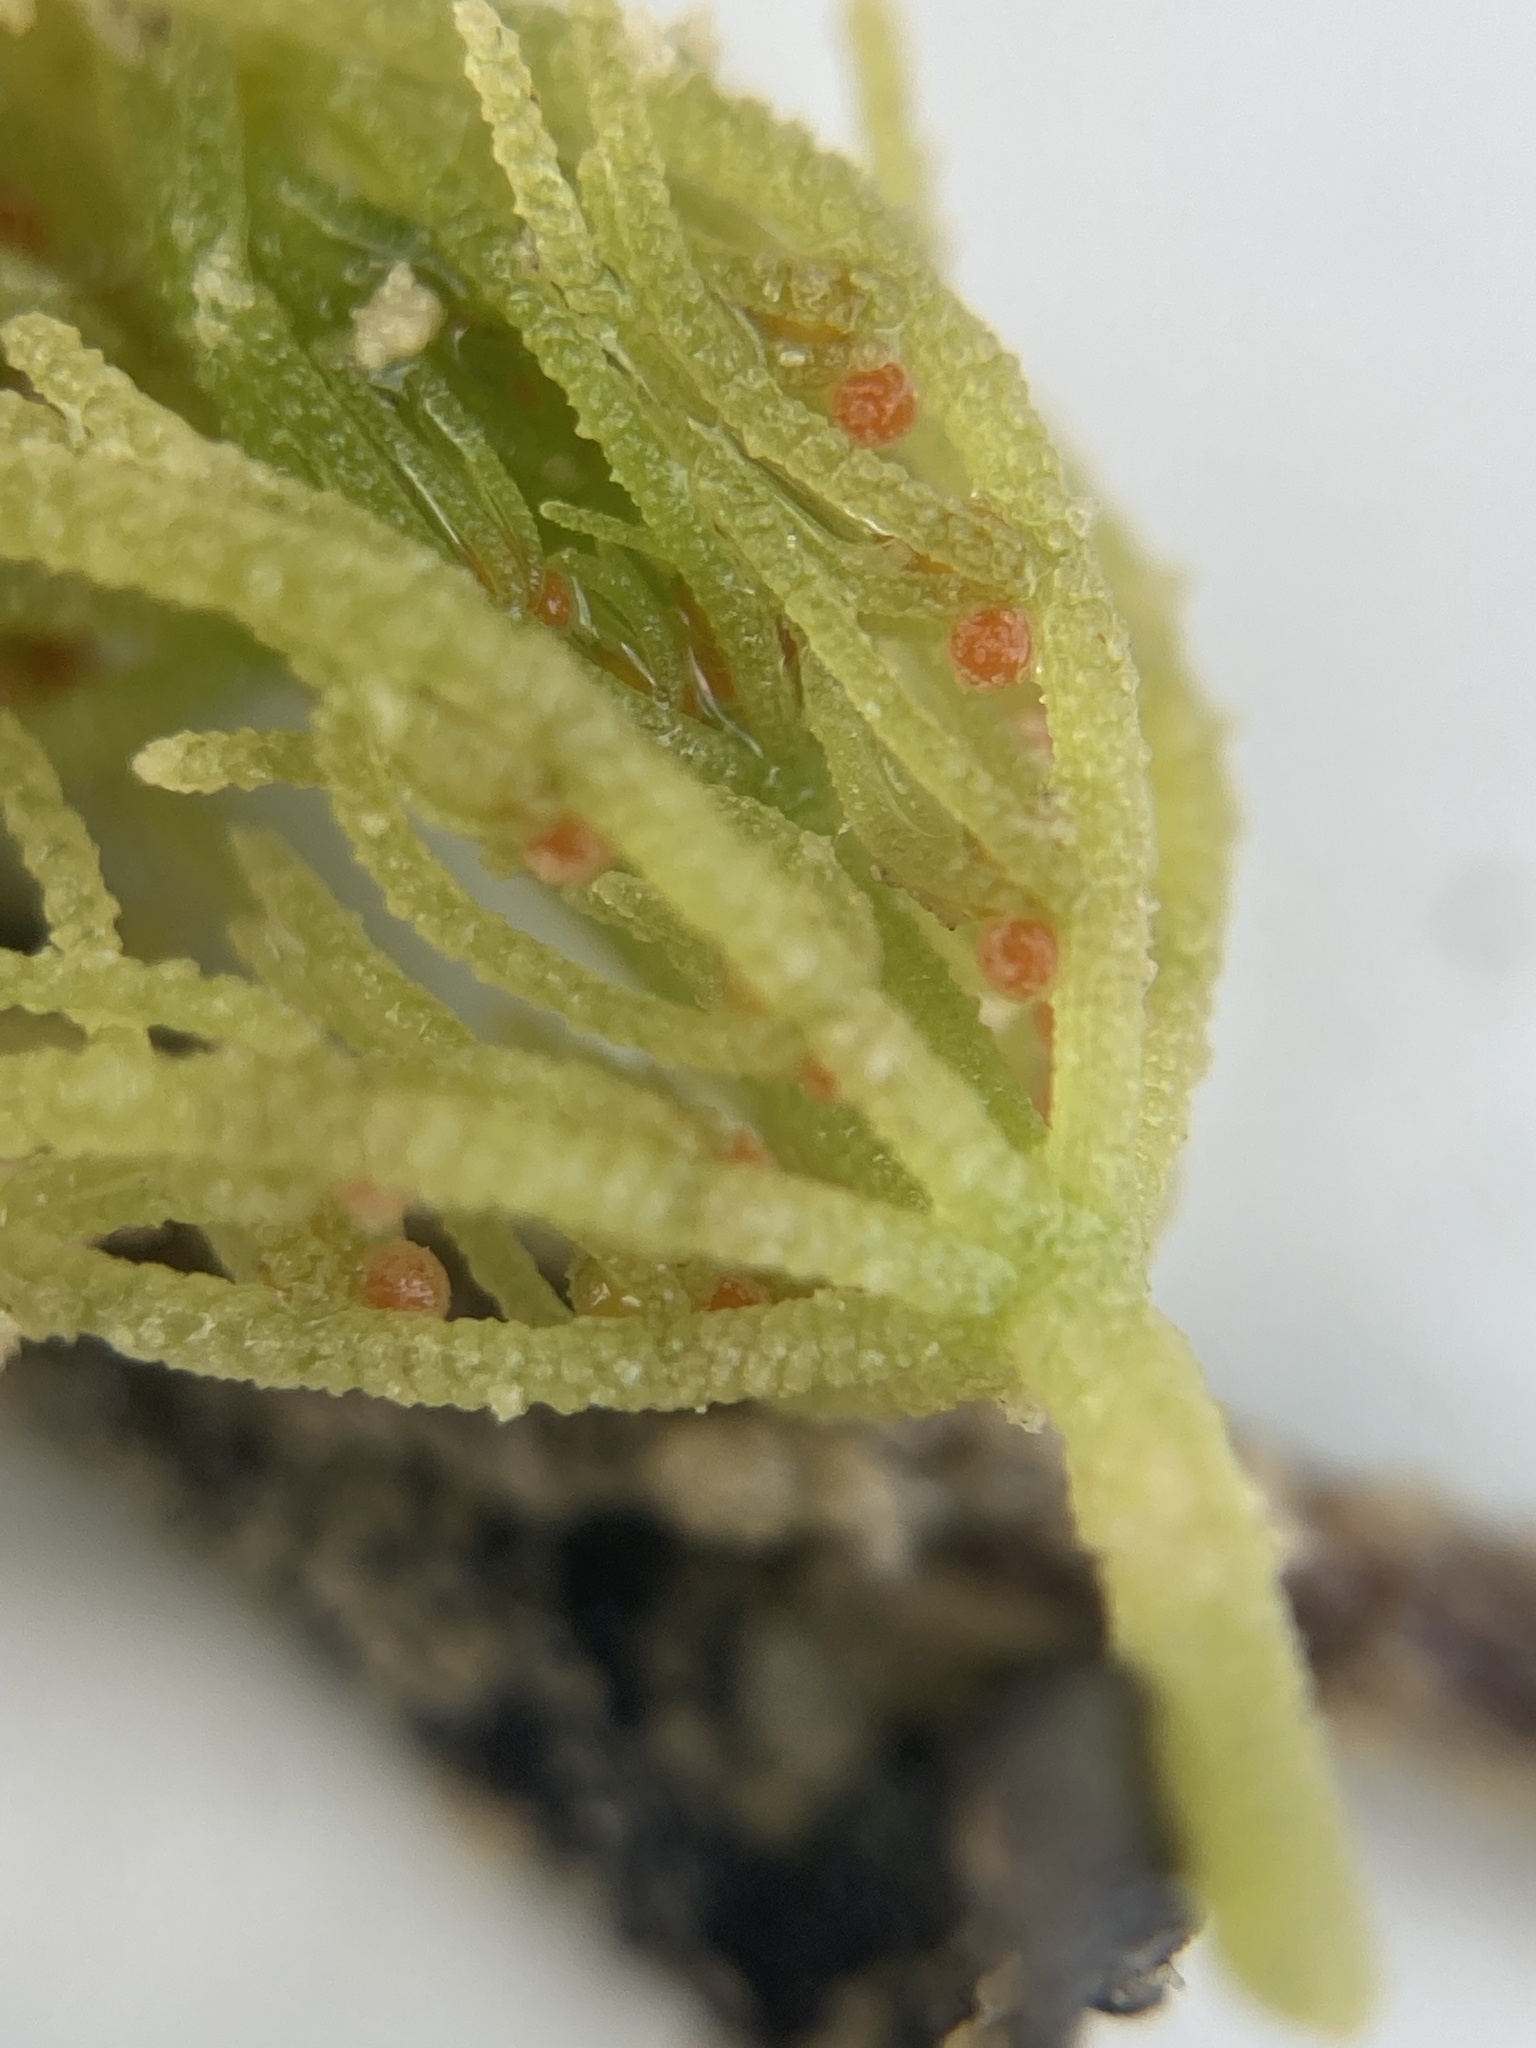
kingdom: Plantae
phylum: Charophyta
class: Charophyceae
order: Charales
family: Characeae
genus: Chara
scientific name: Chara vulgaris
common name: Common stonewort
